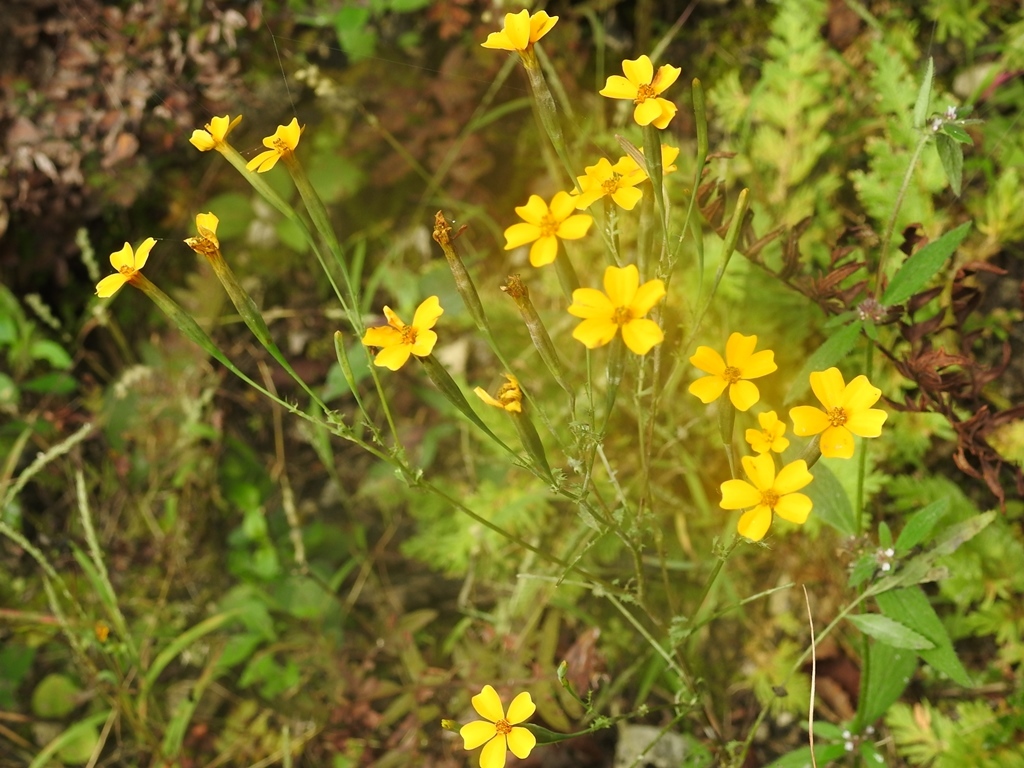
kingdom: Plantae
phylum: Tracheophyta
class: Magnoliopsida
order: Asterales
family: Asteraceae
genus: Tagetes
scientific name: Tagetes tenuifolia
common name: Signet marigold
